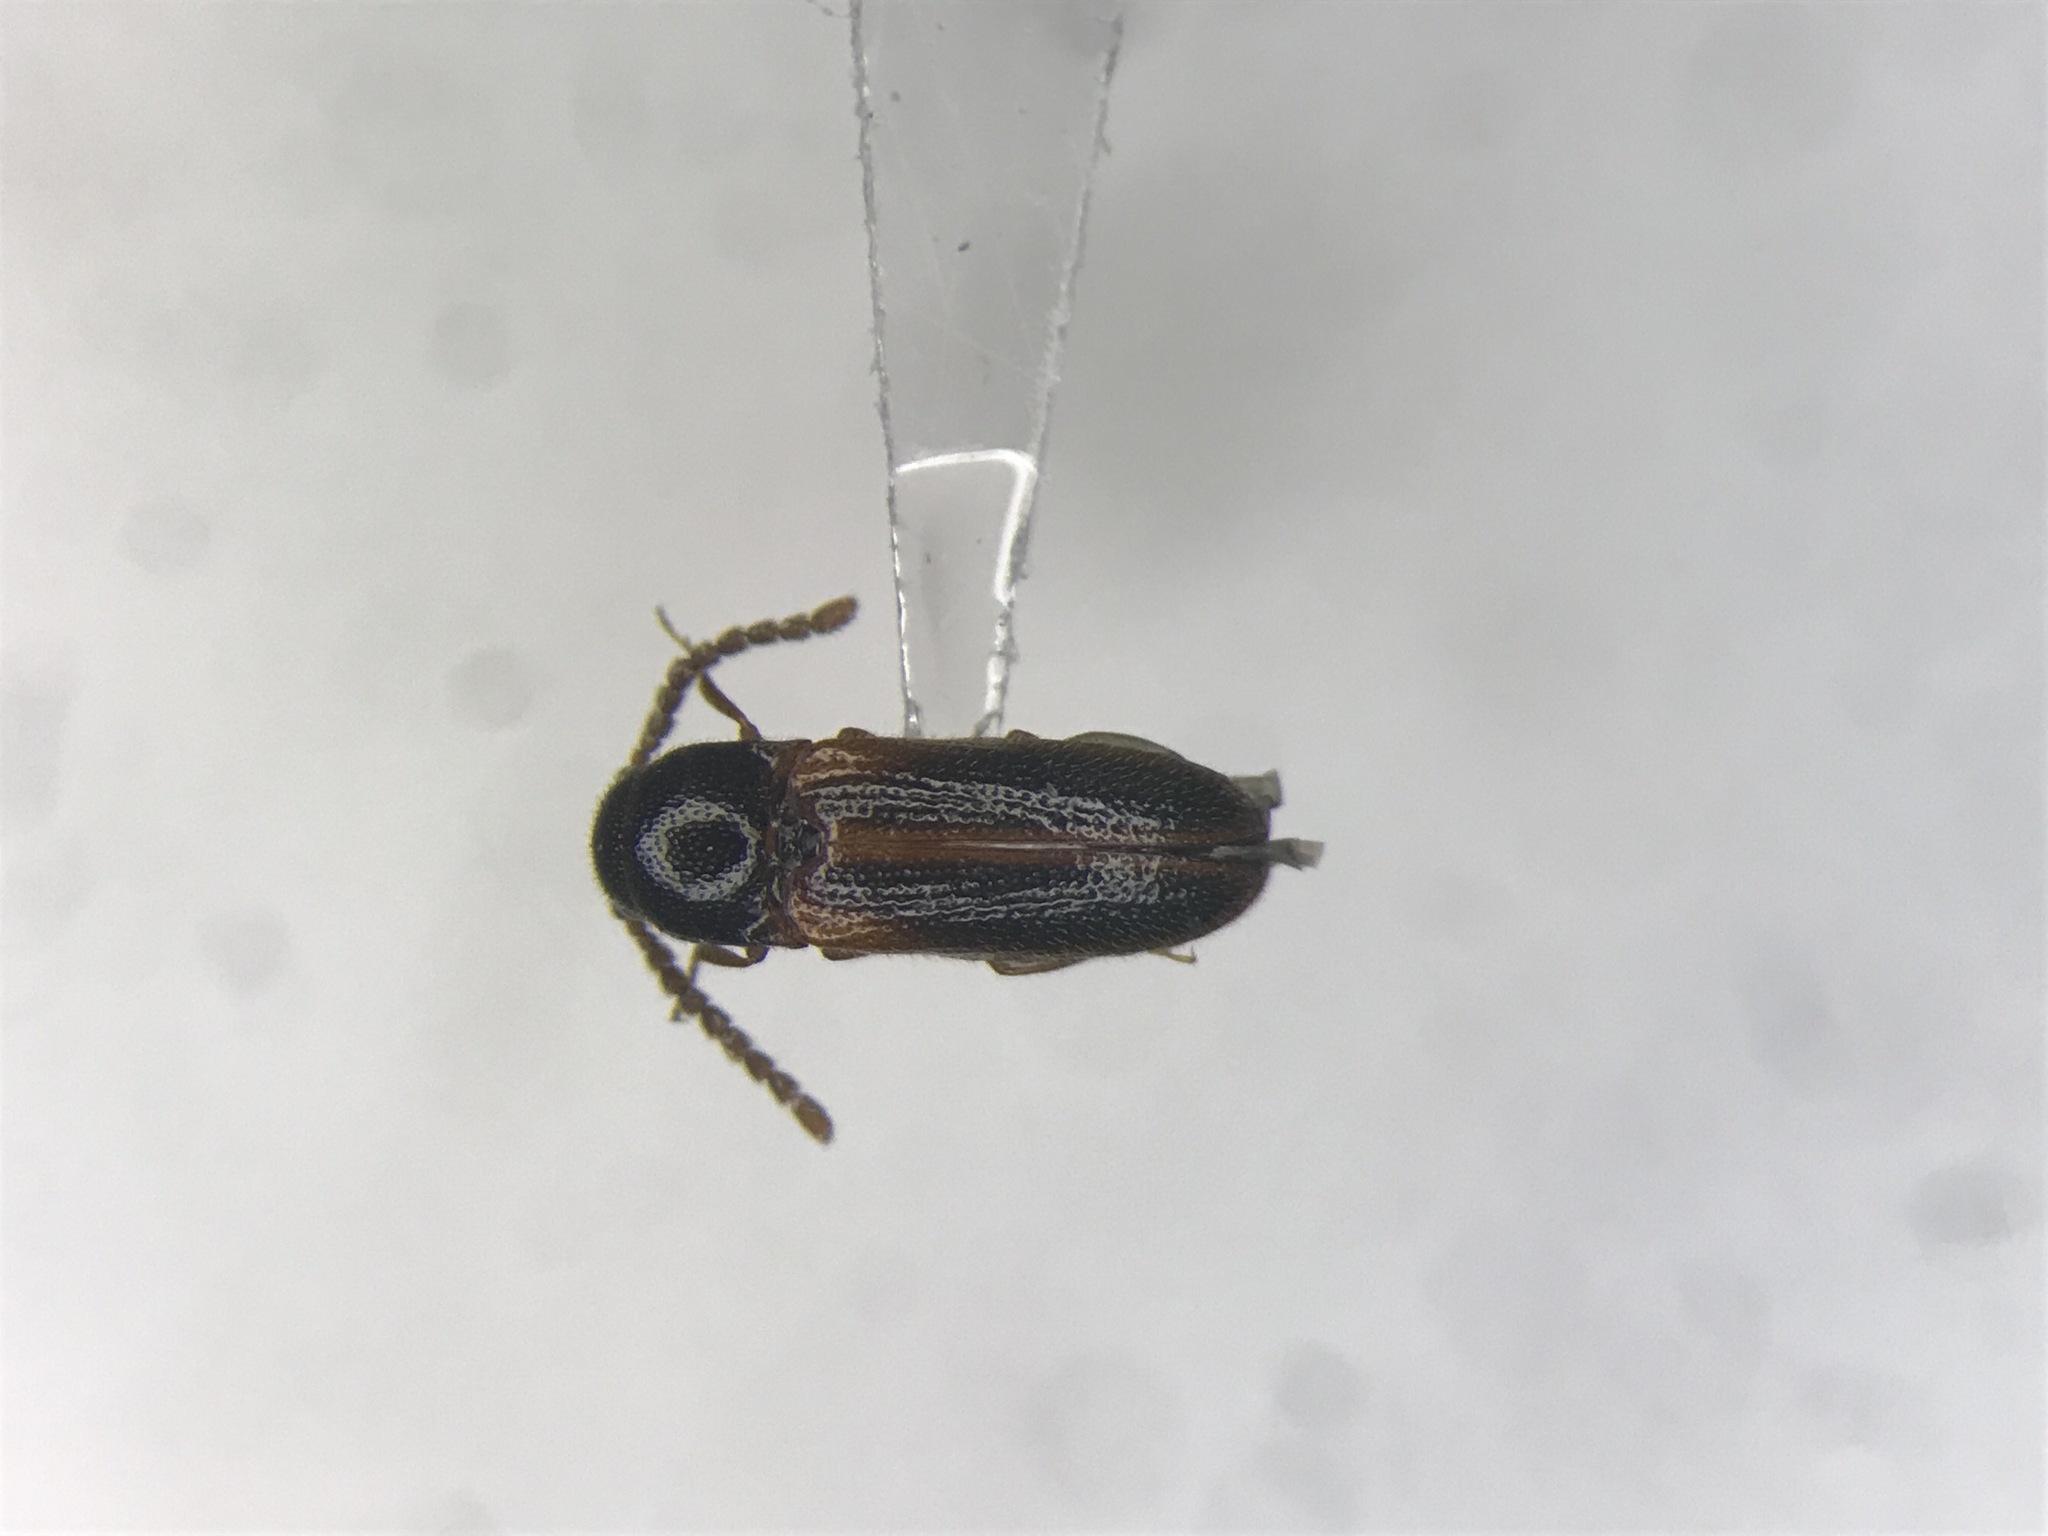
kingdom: Animalia
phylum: Arthropoda
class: Insecta
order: Coleoptera
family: Eucnemidae
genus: Xylophilus
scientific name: Xylophilus
